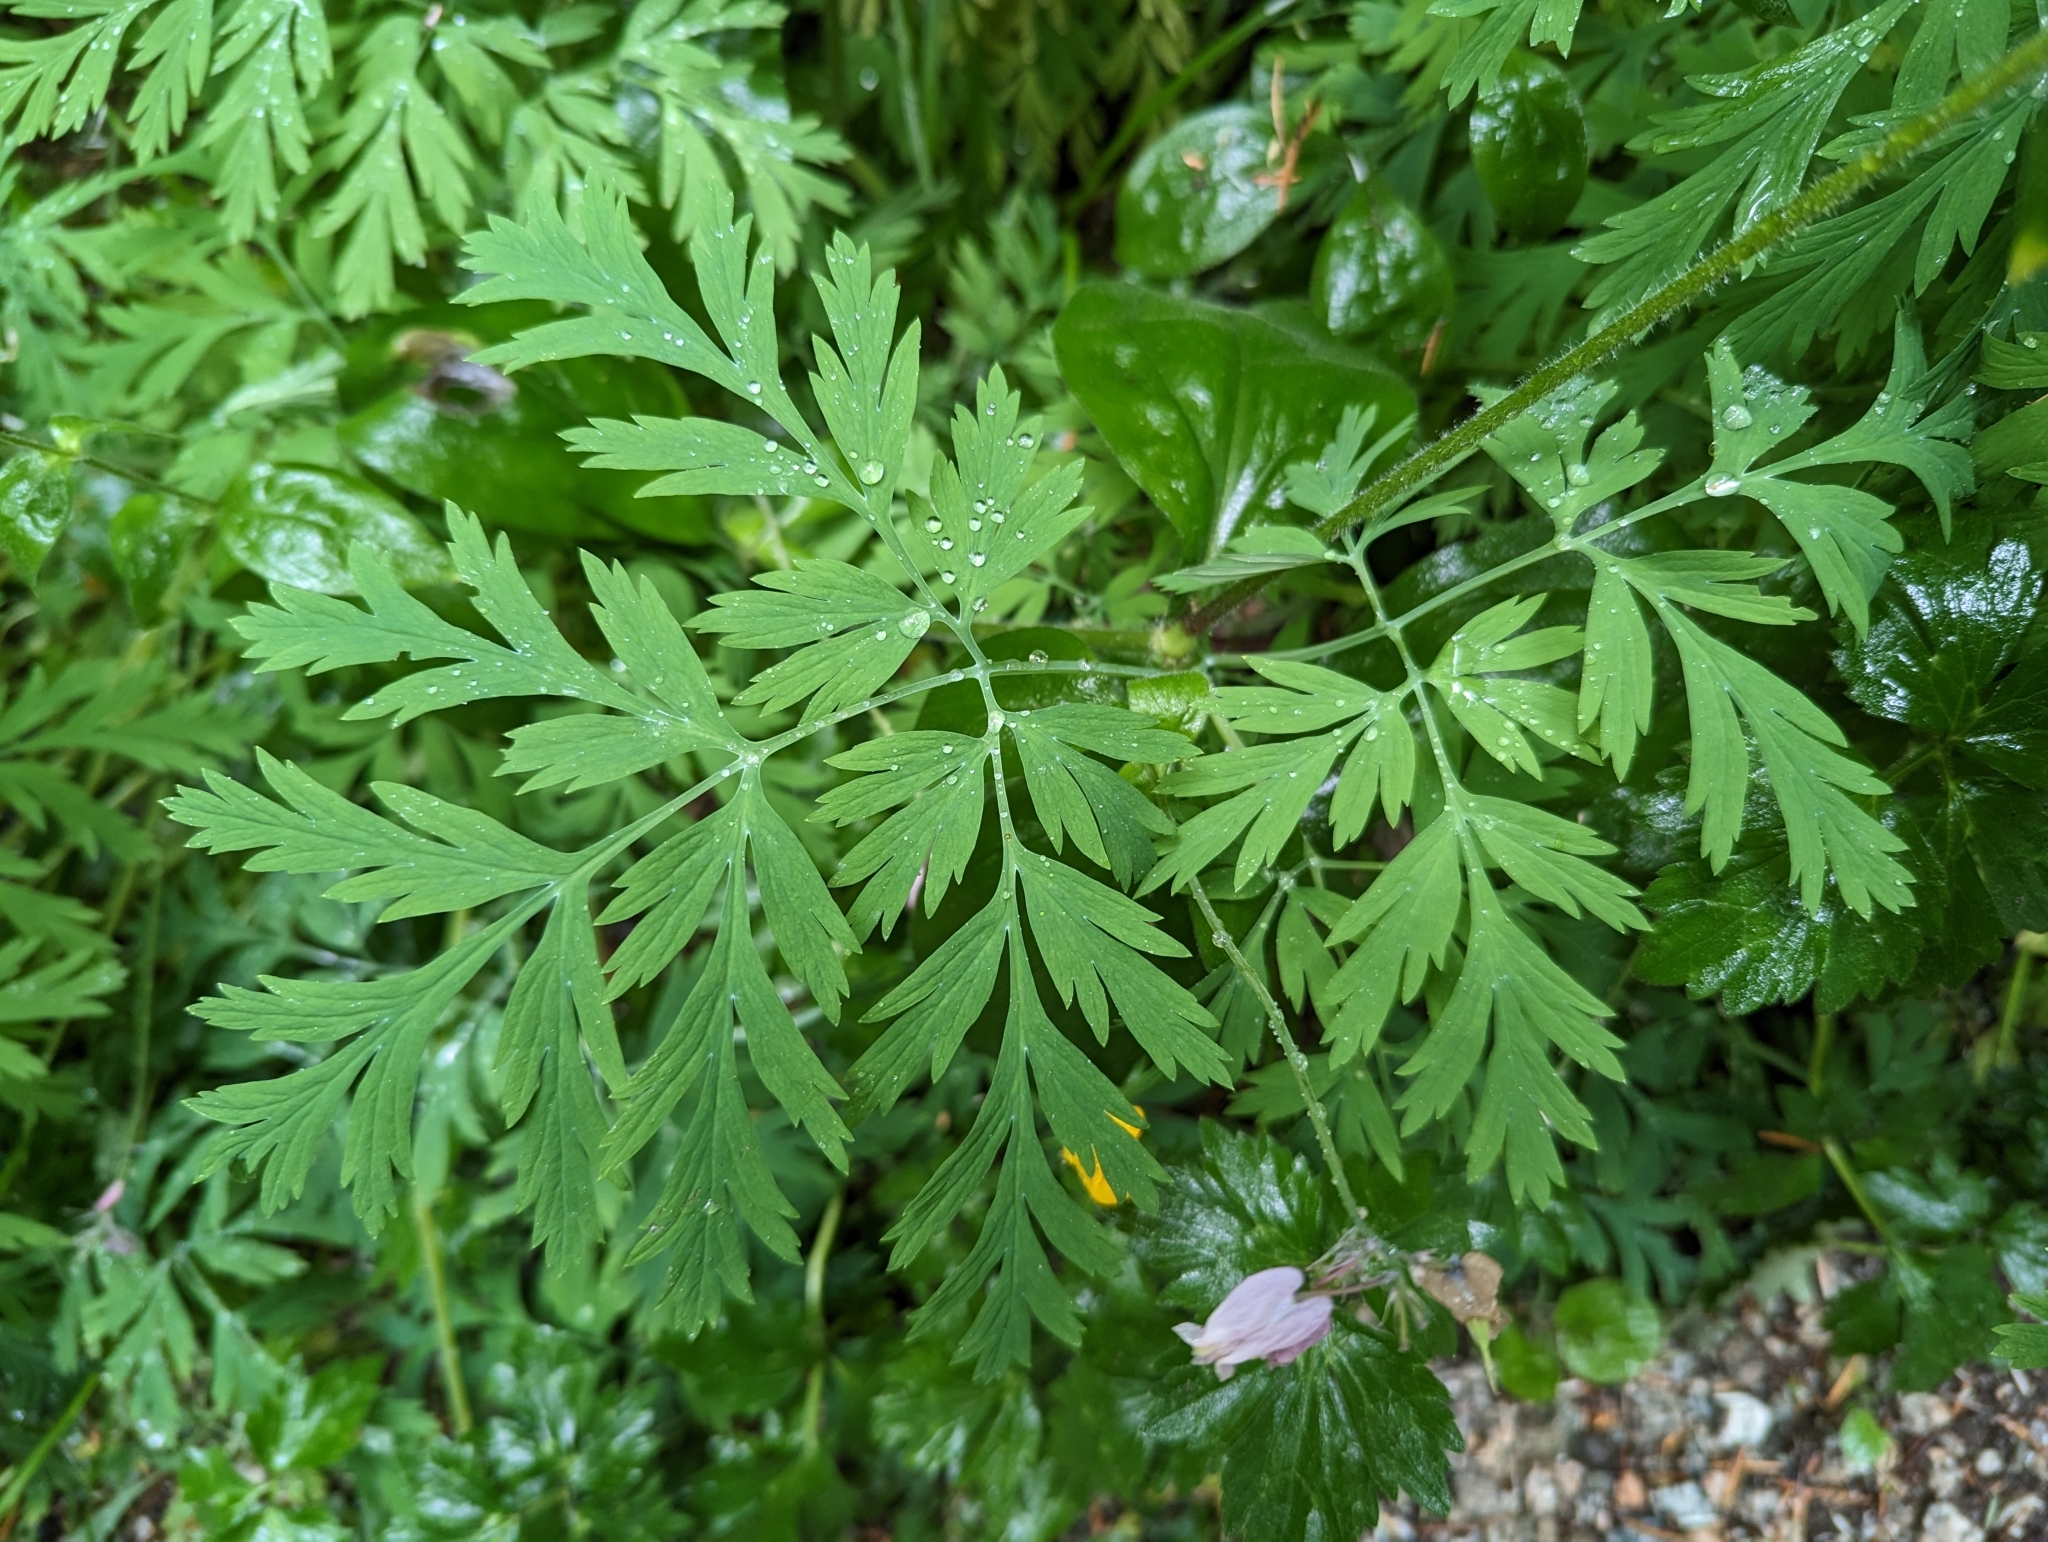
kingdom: Plantae
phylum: Tracheophyta
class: Magnoliopsida
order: Ranunculales
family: Papaveraceae
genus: Dicentra
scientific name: Dicentra formosa
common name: Bleeding-heart
